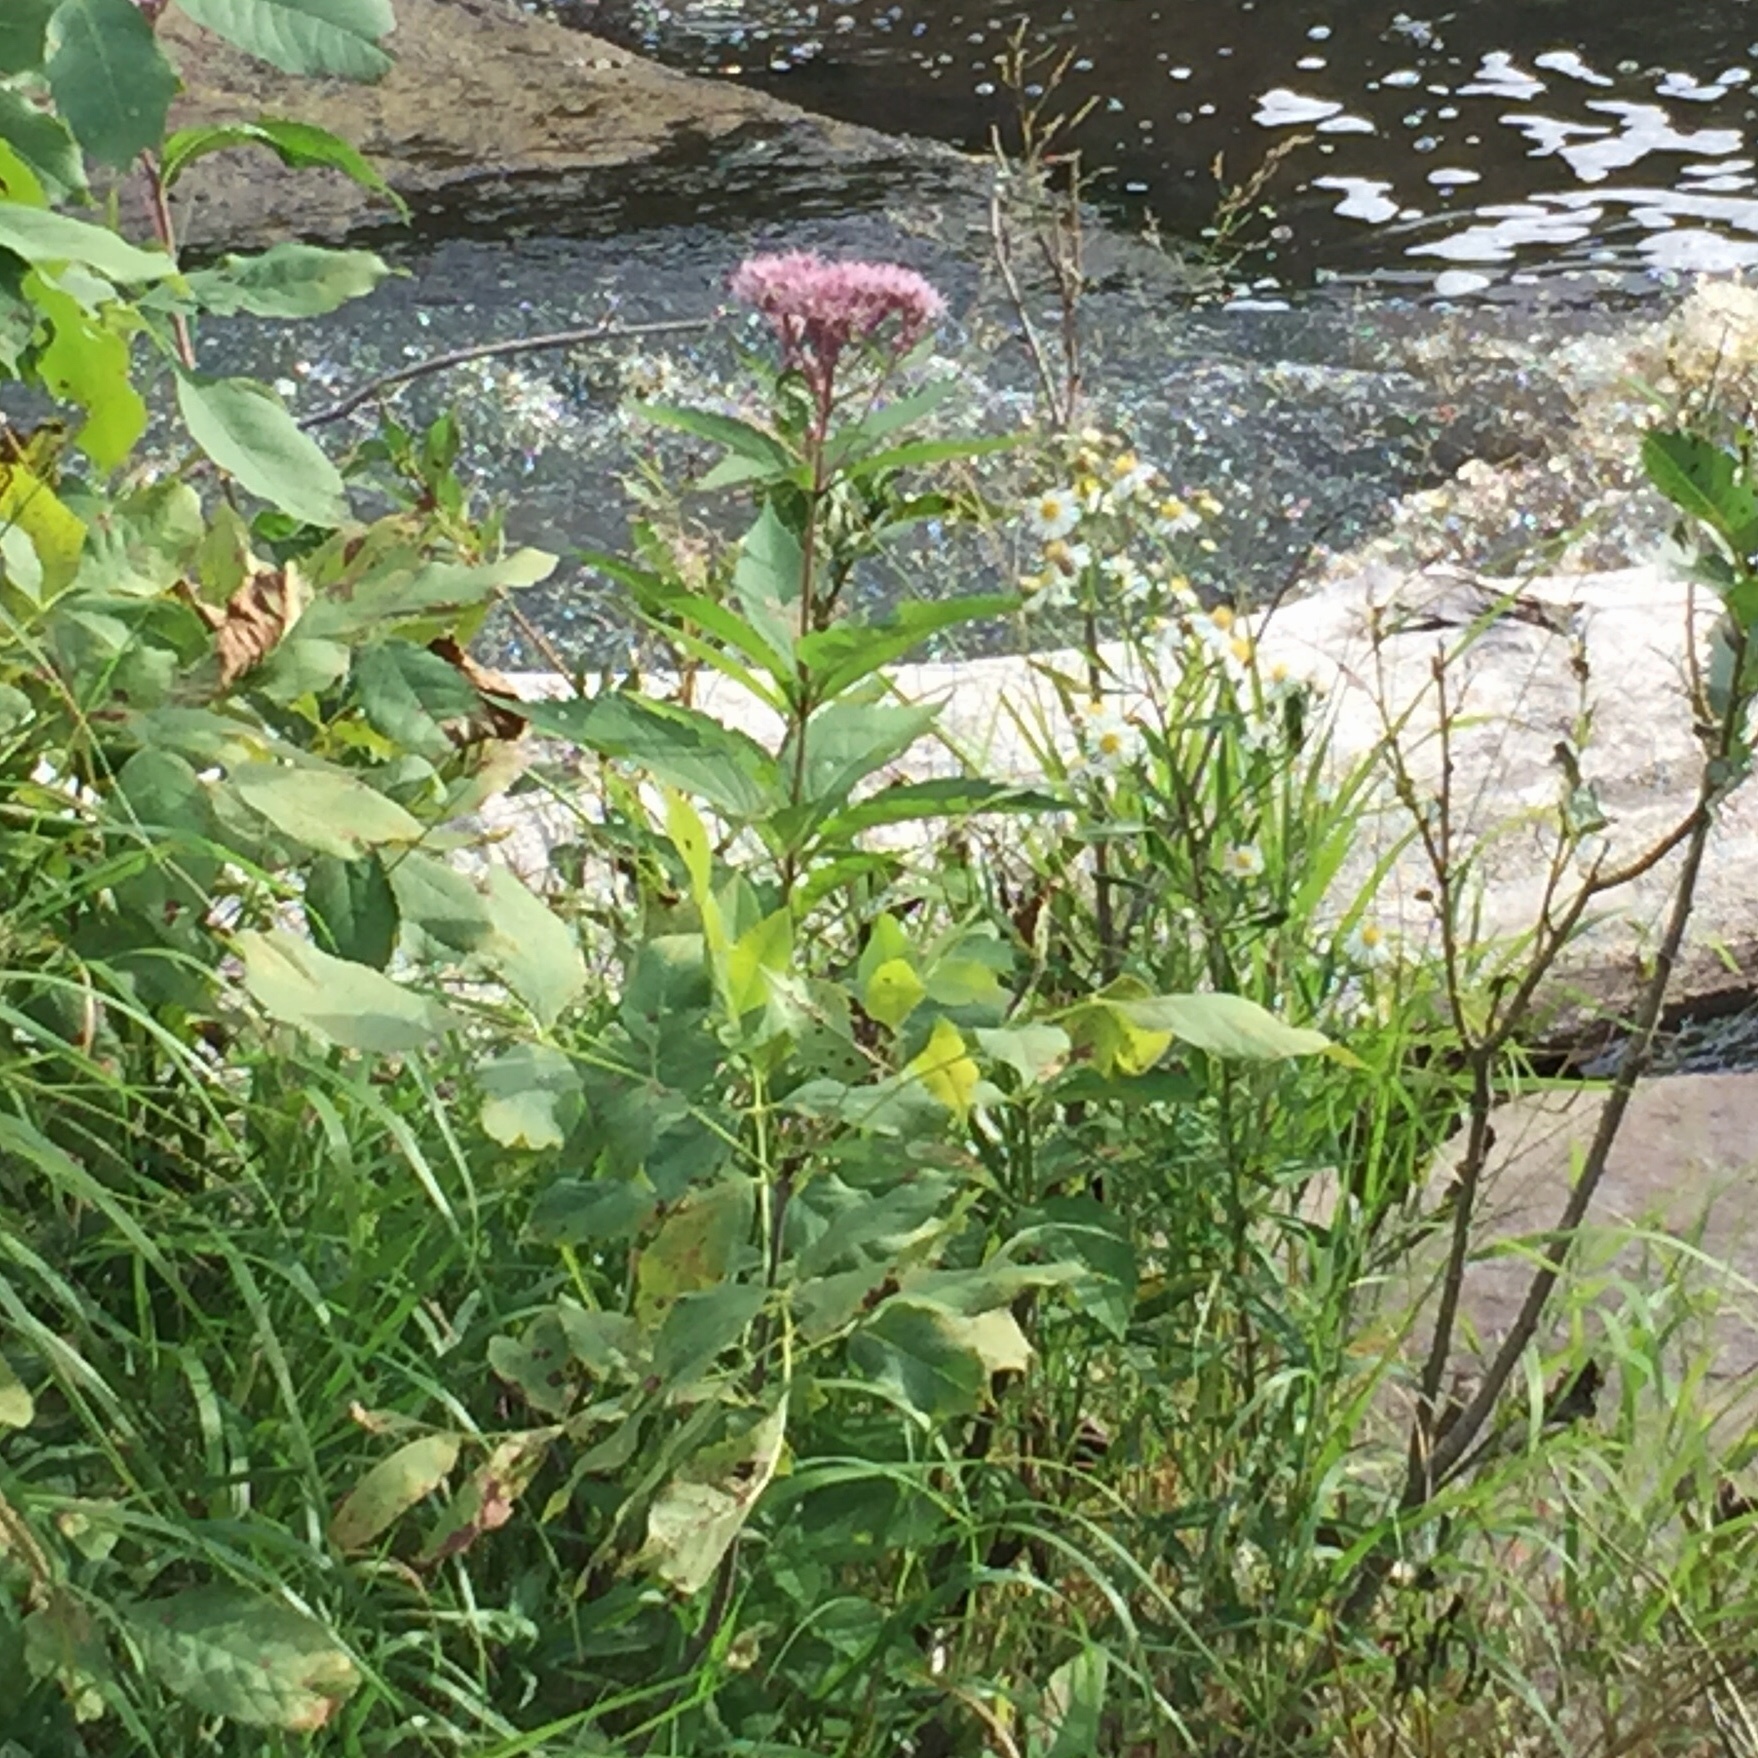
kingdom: Plantae
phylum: Tracheophyta
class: Magnoliopsida
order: Asterales
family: Asteraceae
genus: Eutrochium
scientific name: Eutrochium maculatum
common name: Spotted joe pye weed
